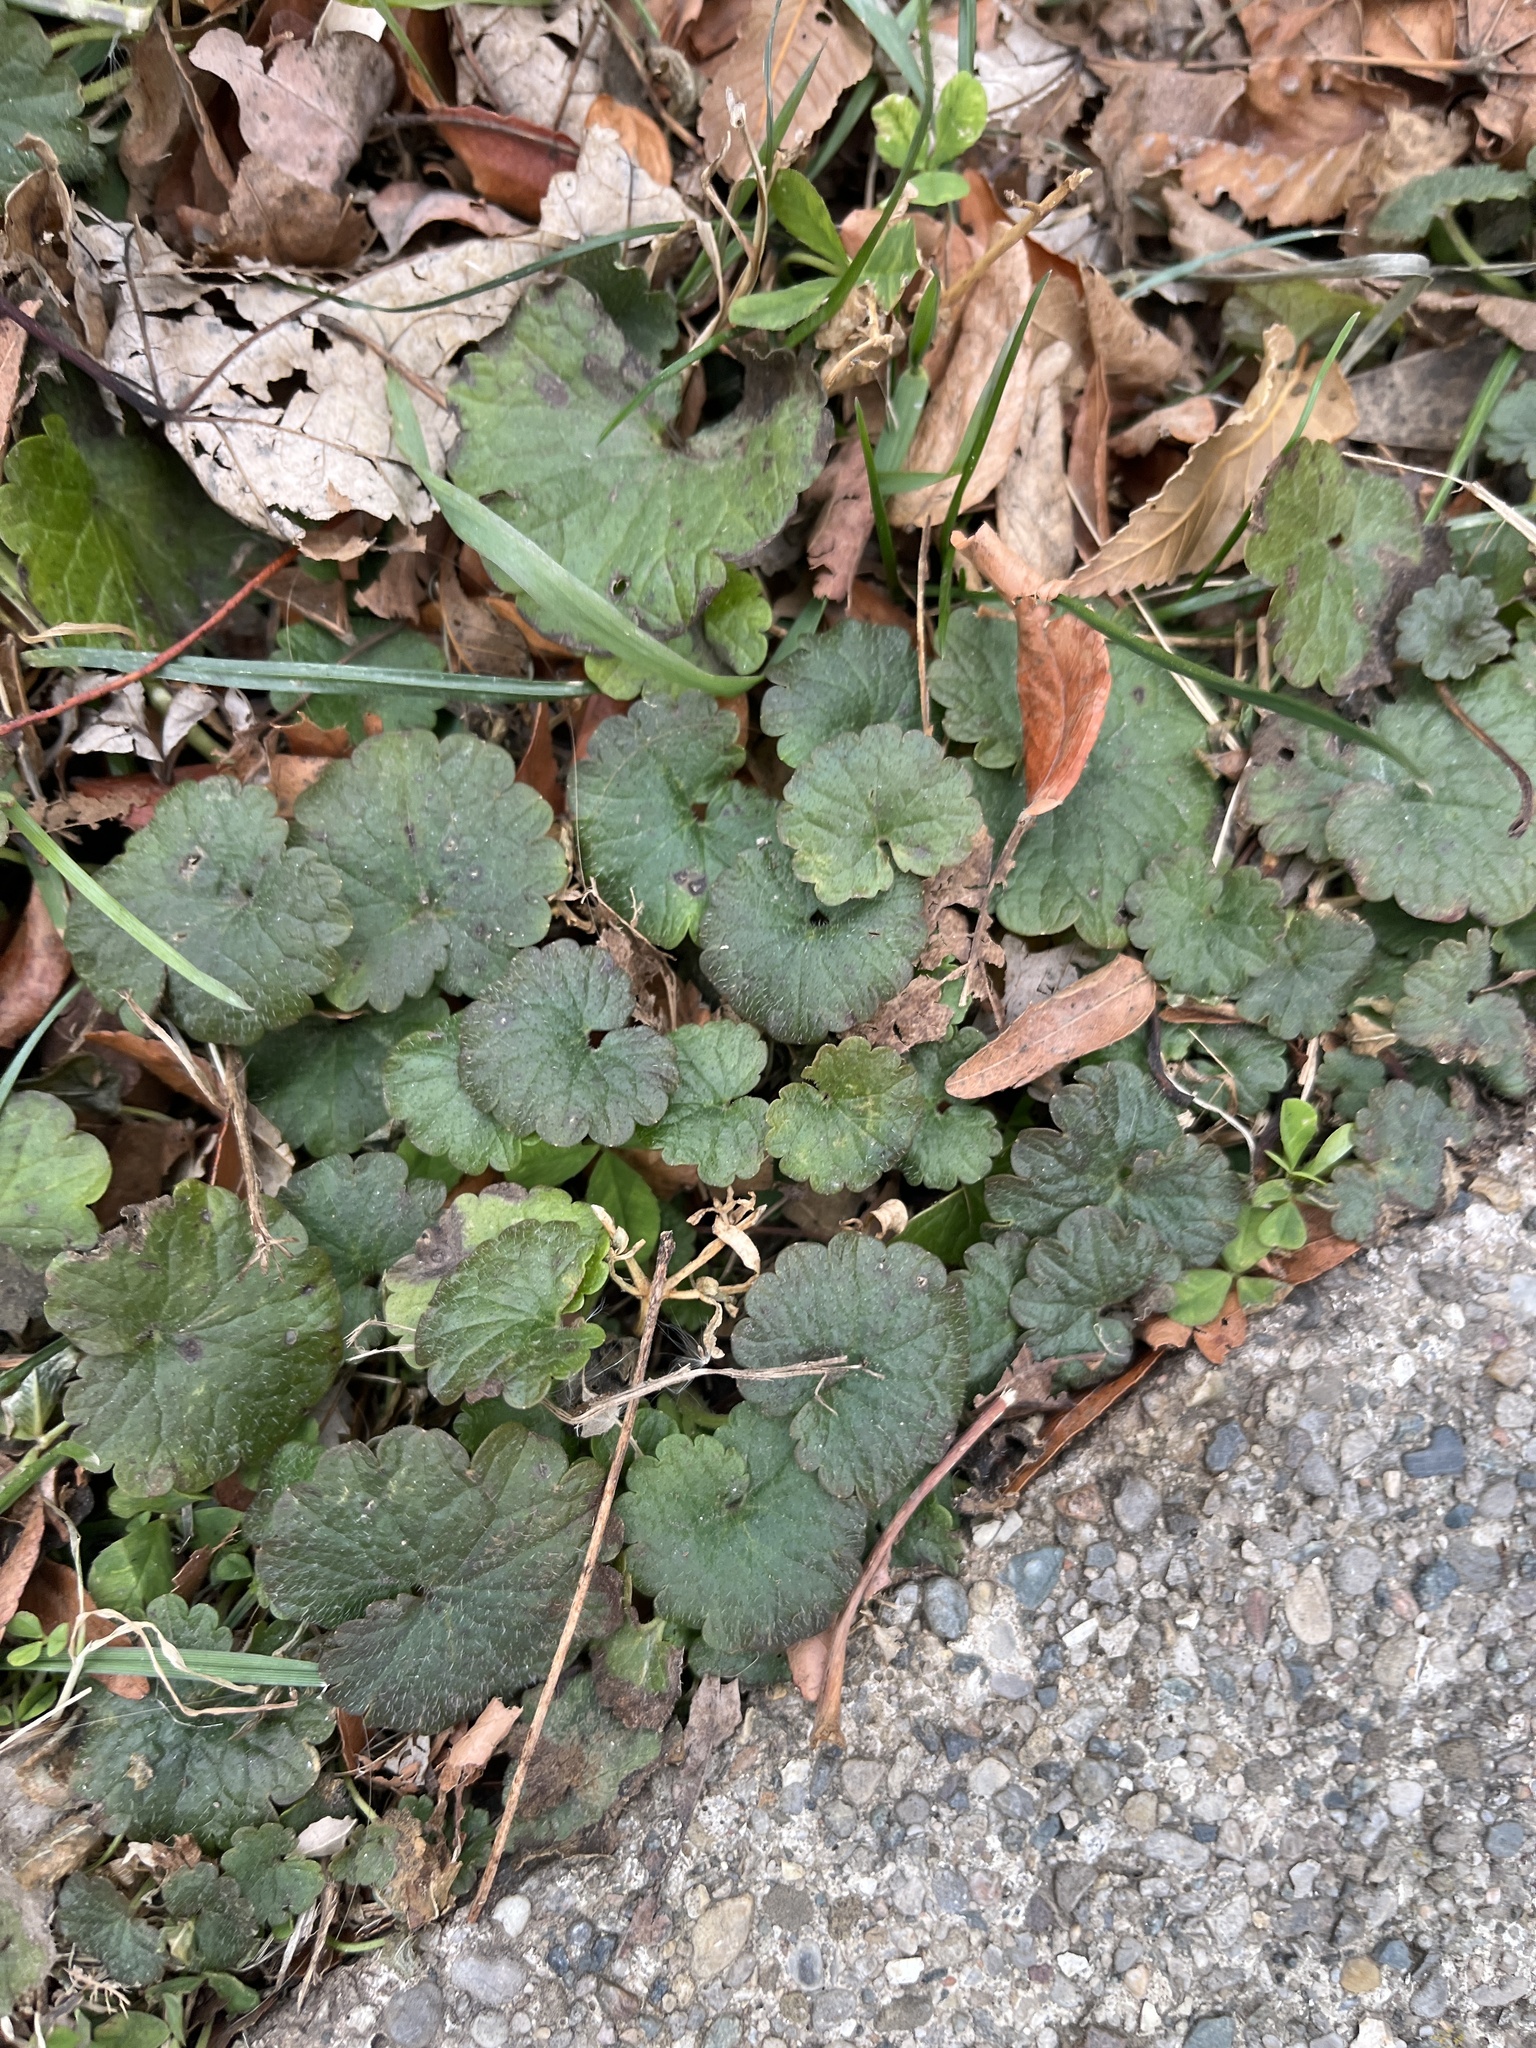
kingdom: Plantae
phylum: Tracheophyta
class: Magnoliopsida
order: Lamiales
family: Lamiaceae
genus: Glechoma
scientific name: Glechoma hederacea
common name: Ground ivy
